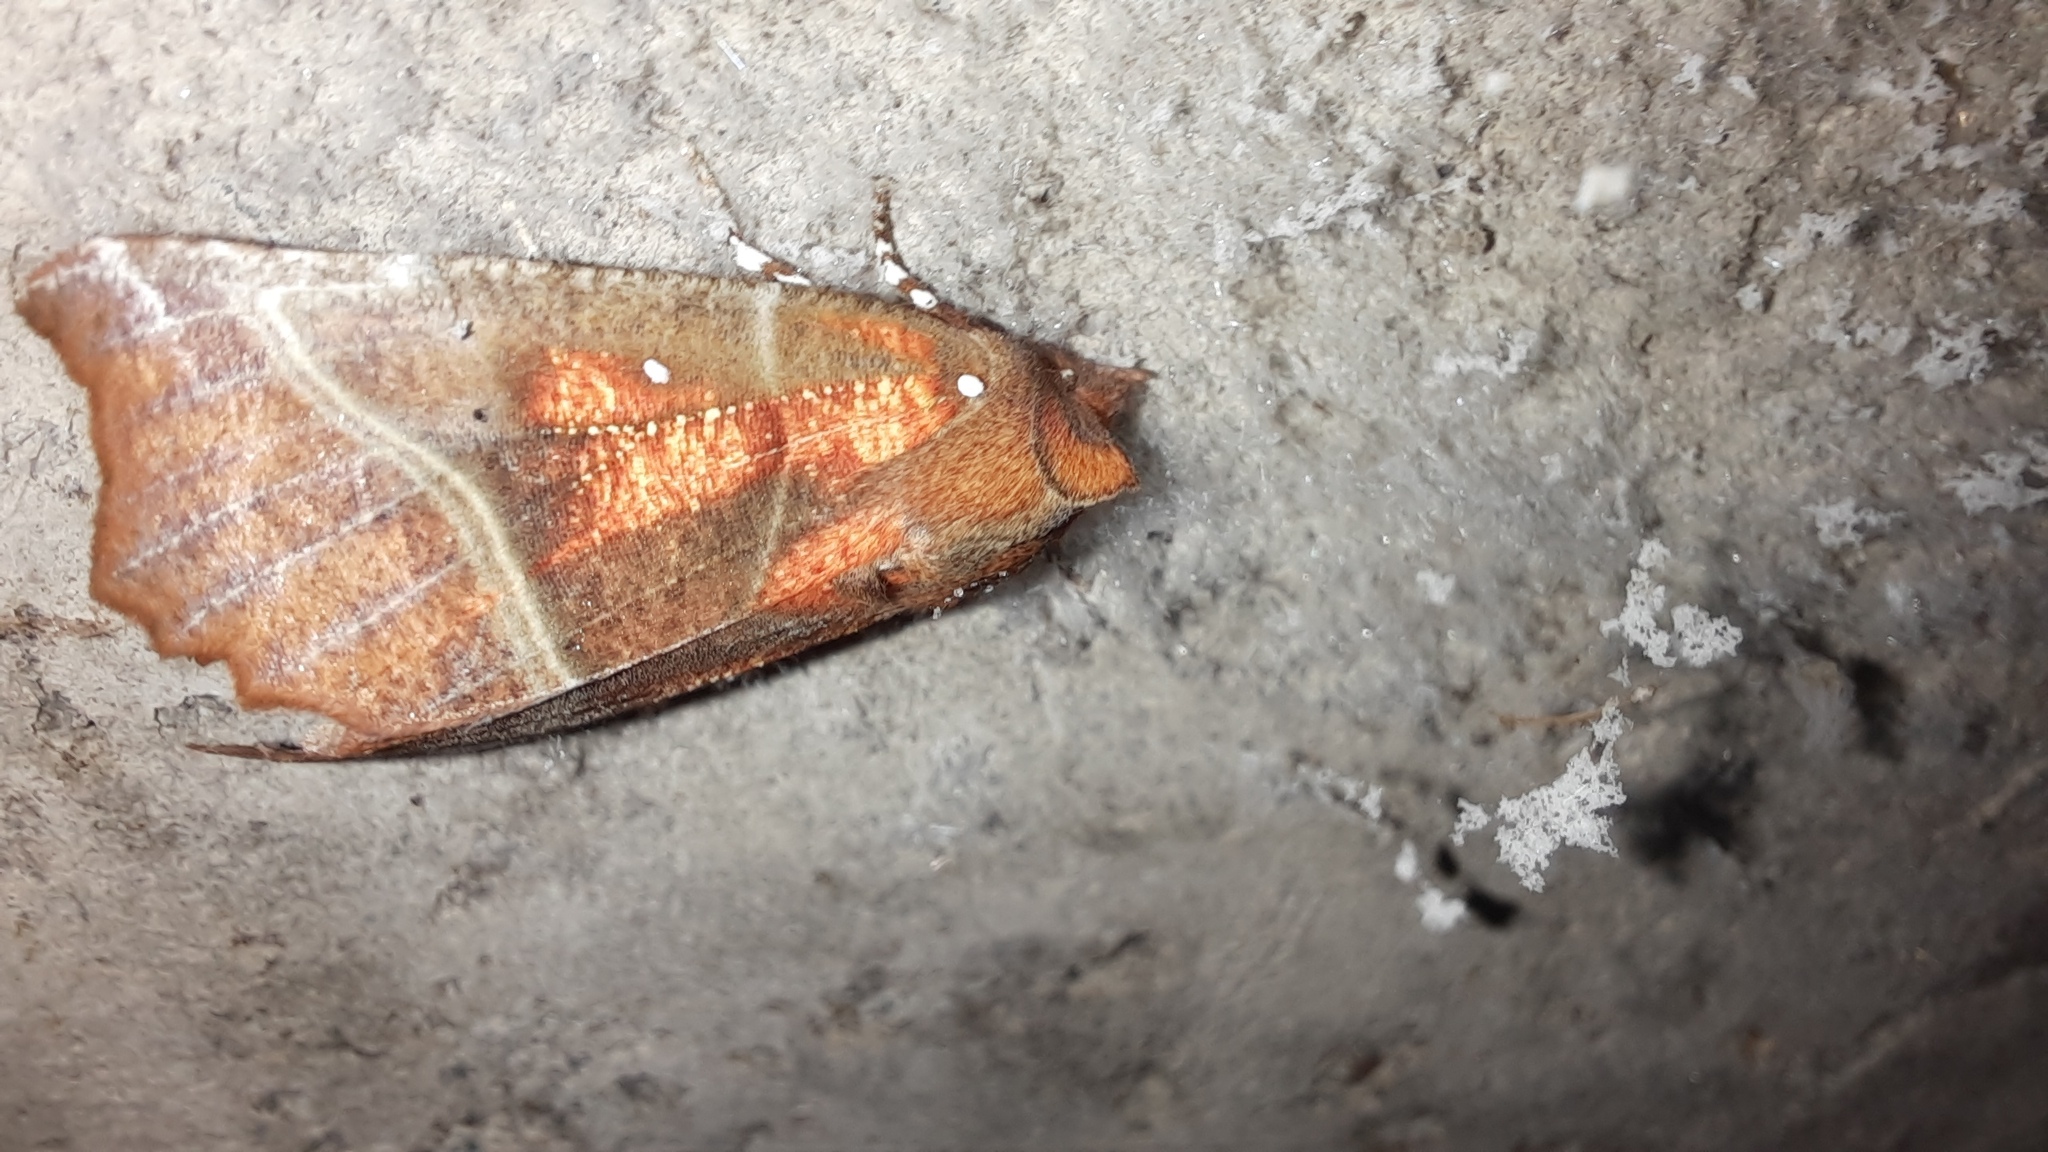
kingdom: Animalia
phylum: Arthropoda
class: Insecta
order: Lepidoptera
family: Erebidae
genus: Scoliopteryx
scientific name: Scoliopteryx libatrix
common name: Herald
